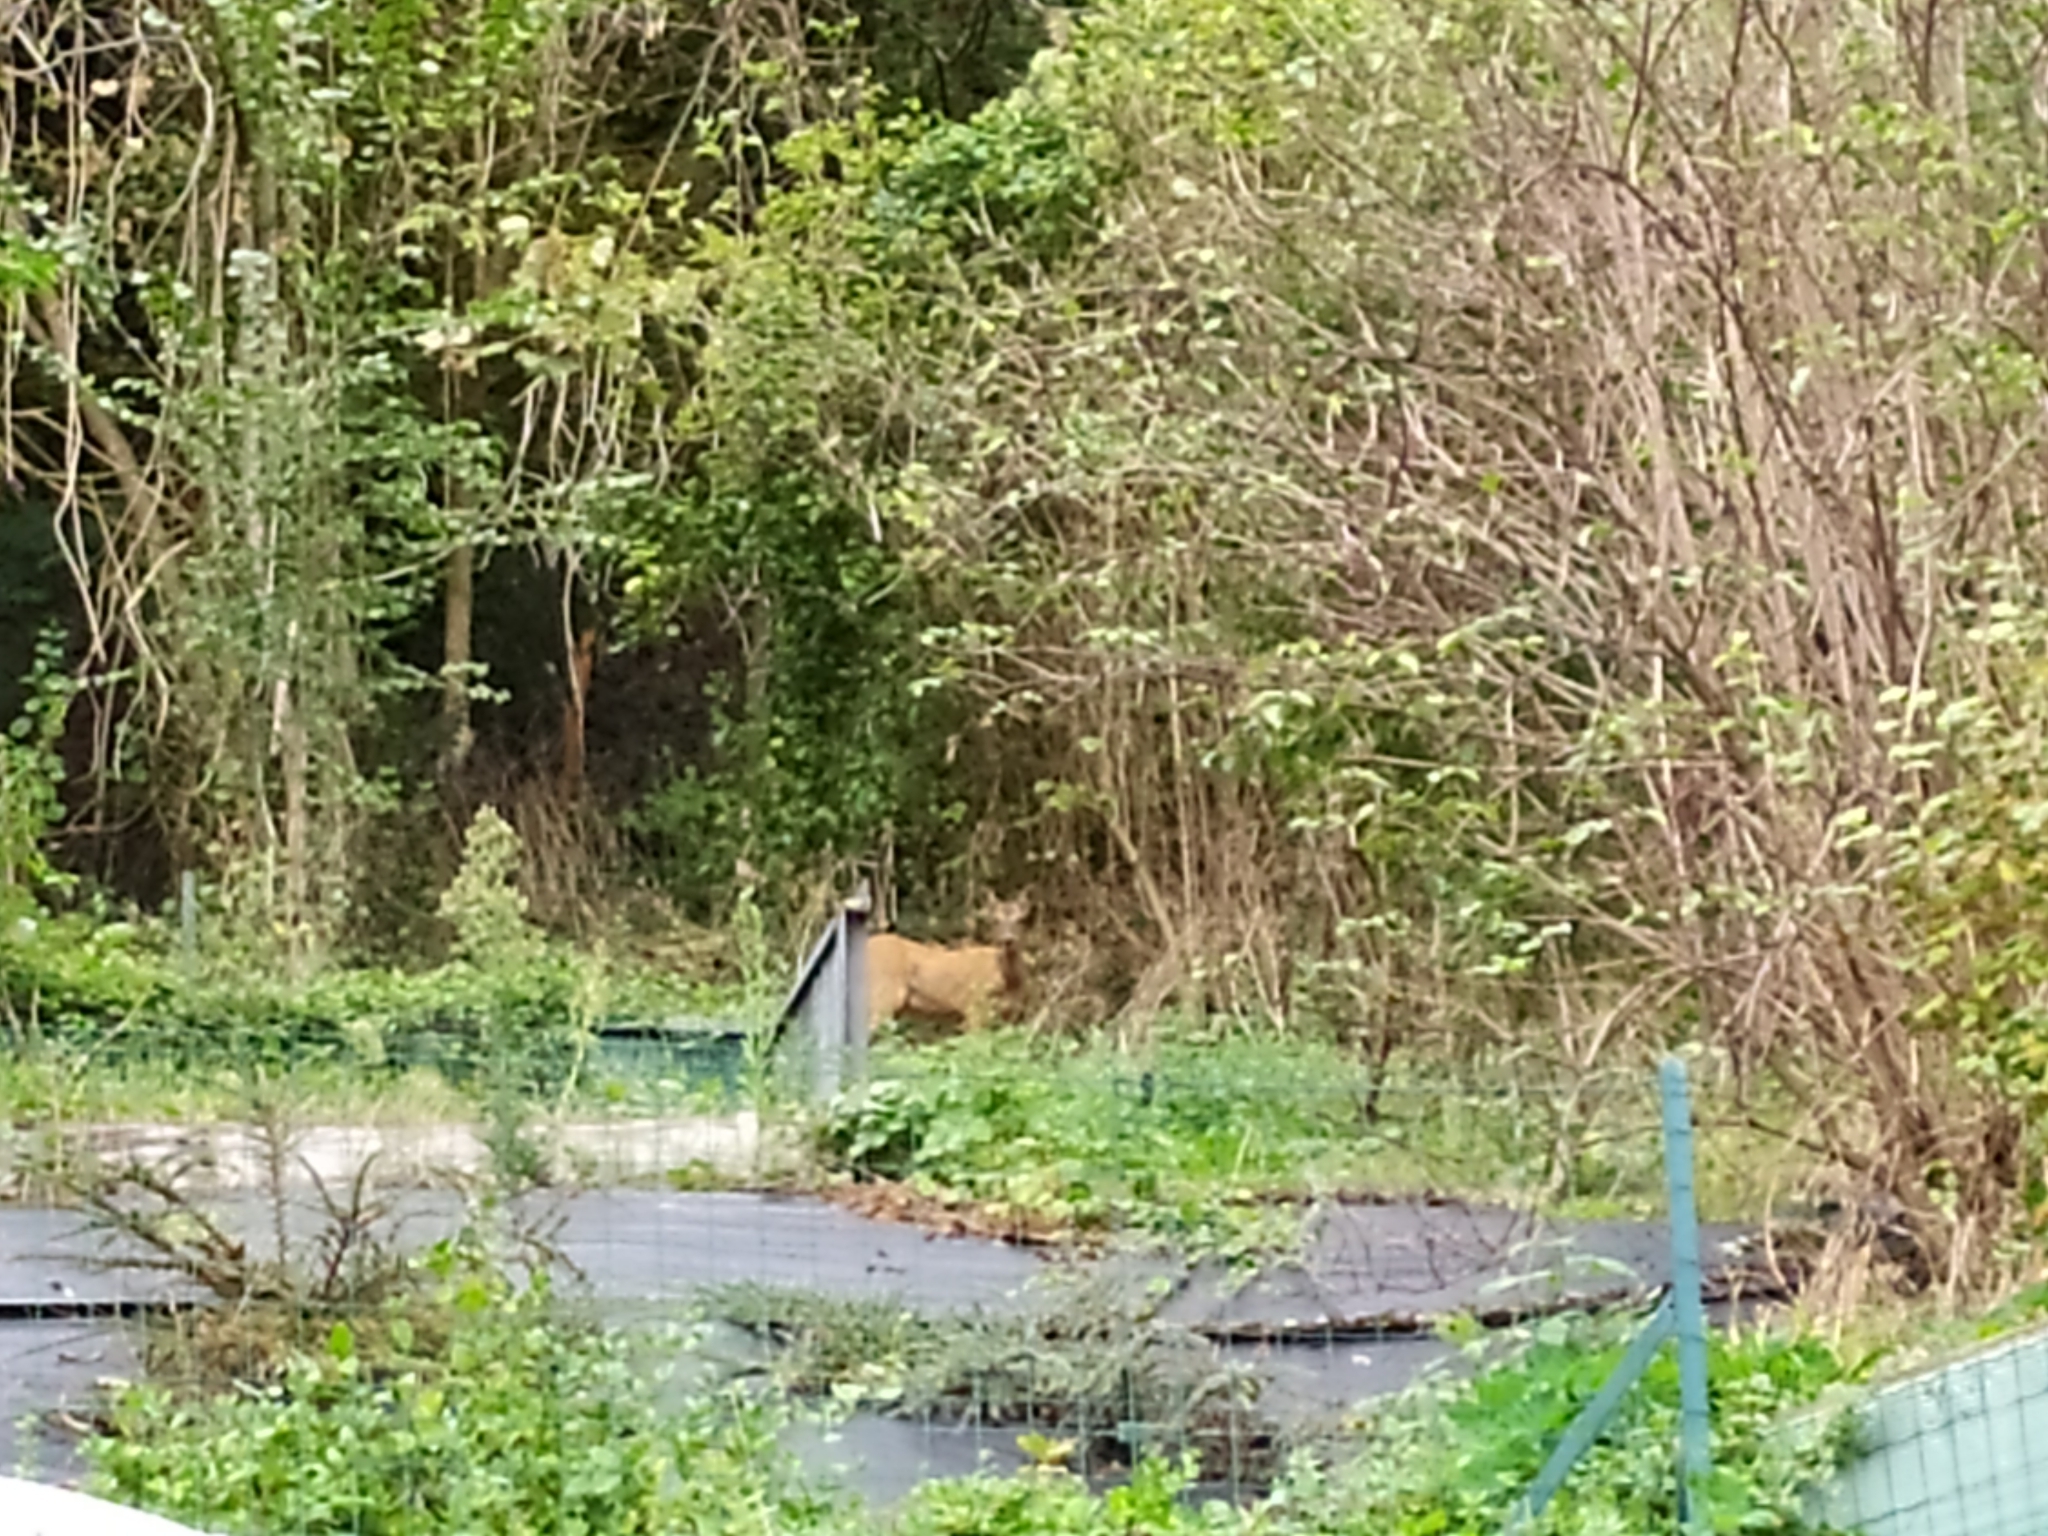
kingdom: Animalia
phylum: Chordata
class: Mammalia
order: Artiodactyla
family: Cervidae
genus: Capreolus
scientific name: Capreolus capreolus
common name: Western roe deer
